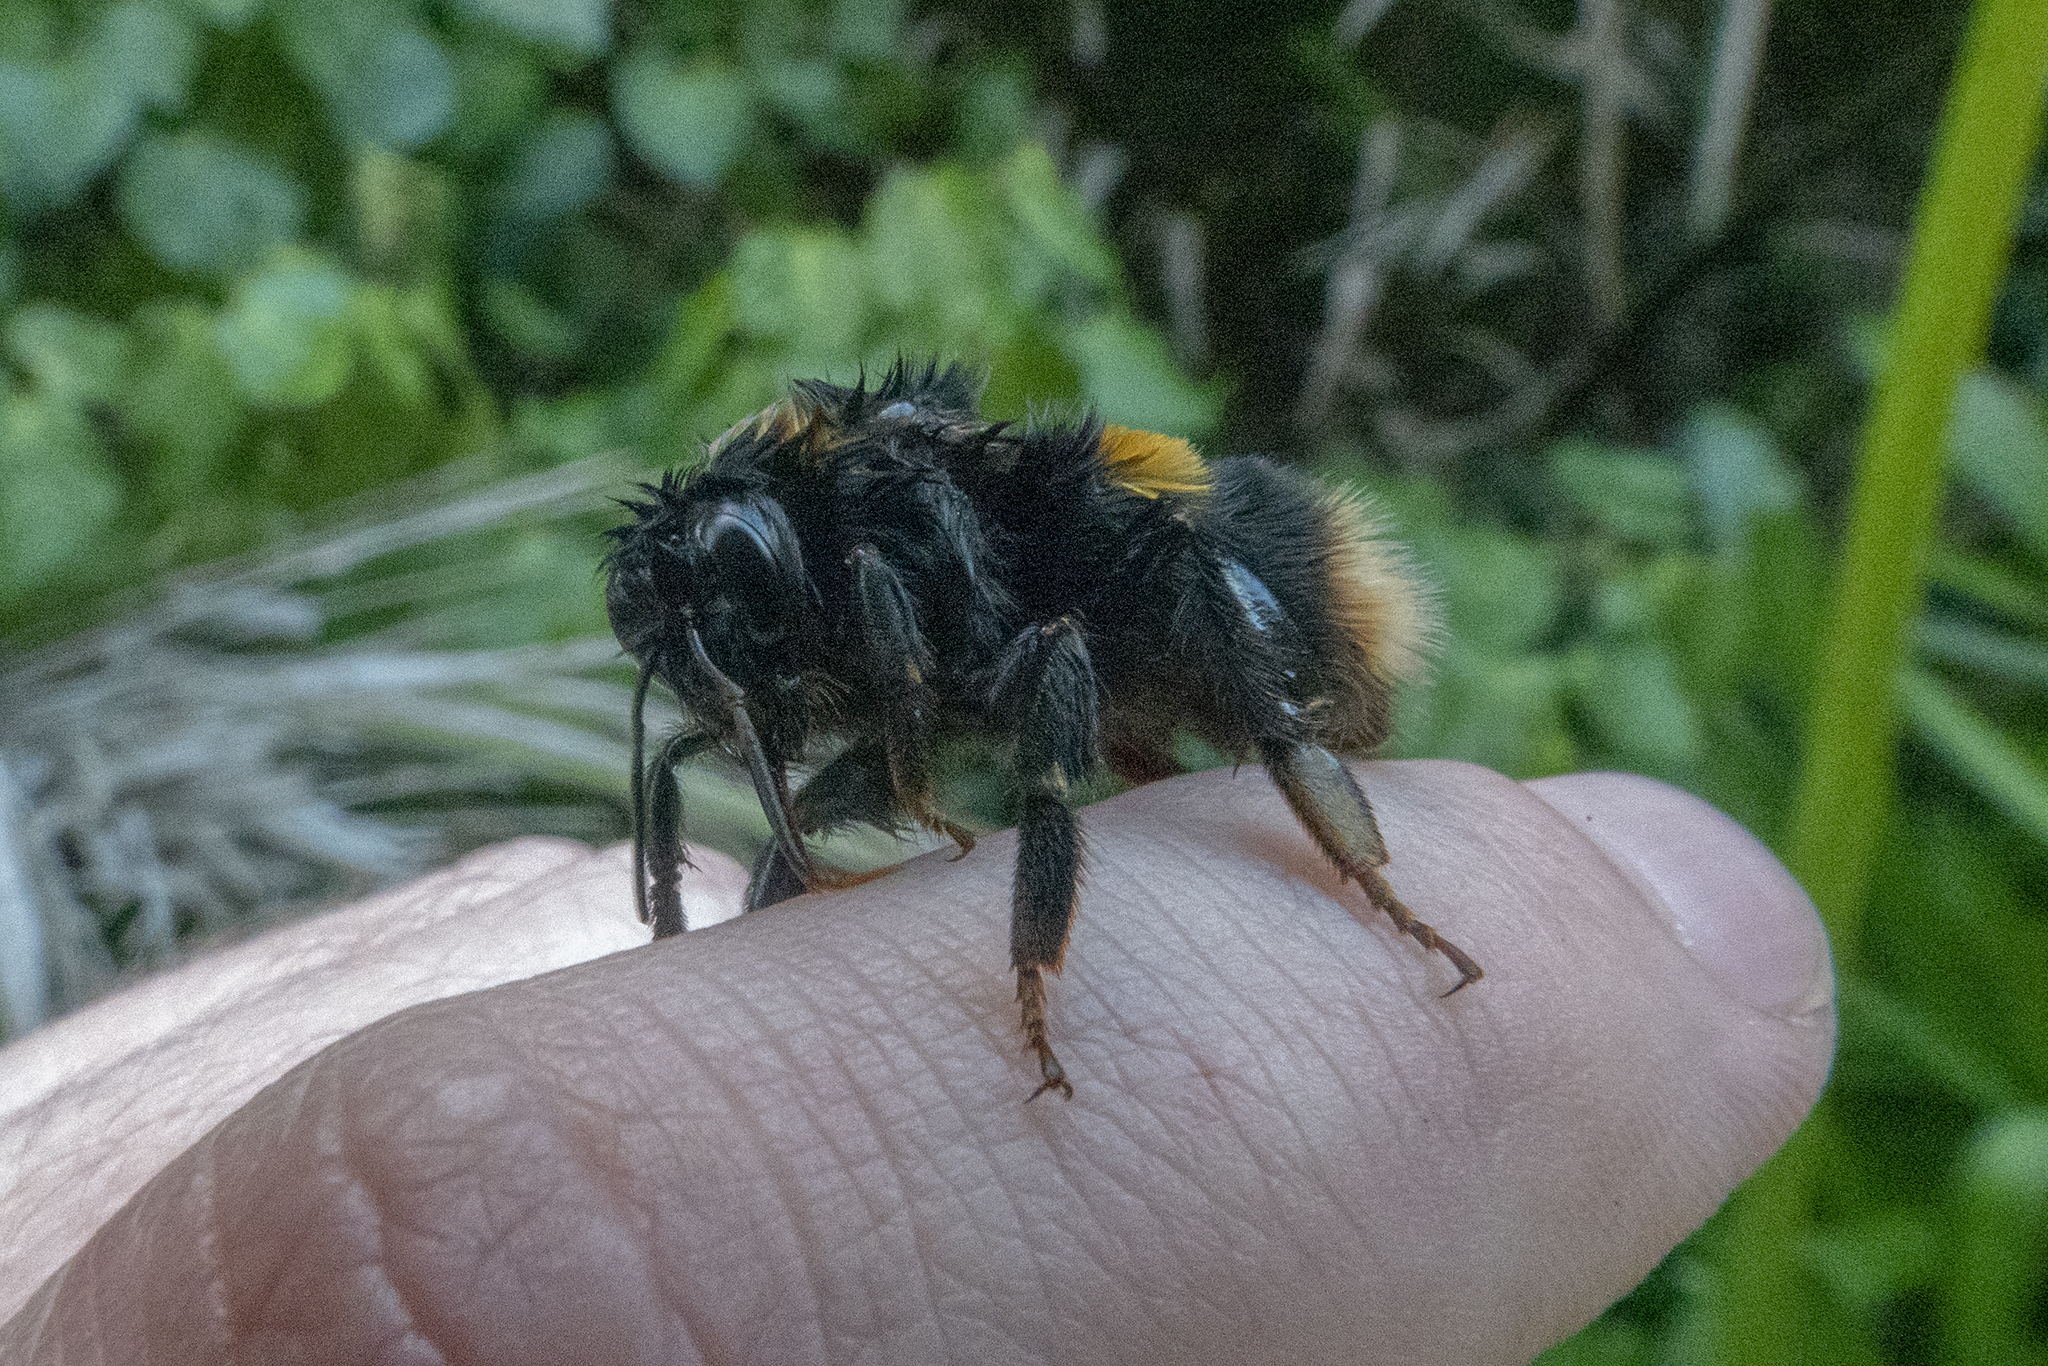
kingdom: Animalia
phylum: Arthropoda
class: Insecta
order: Hymenoptera
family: Apidae
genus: Bombus
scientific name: Bombus terrestris
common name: Buff-tailed bumblebee
